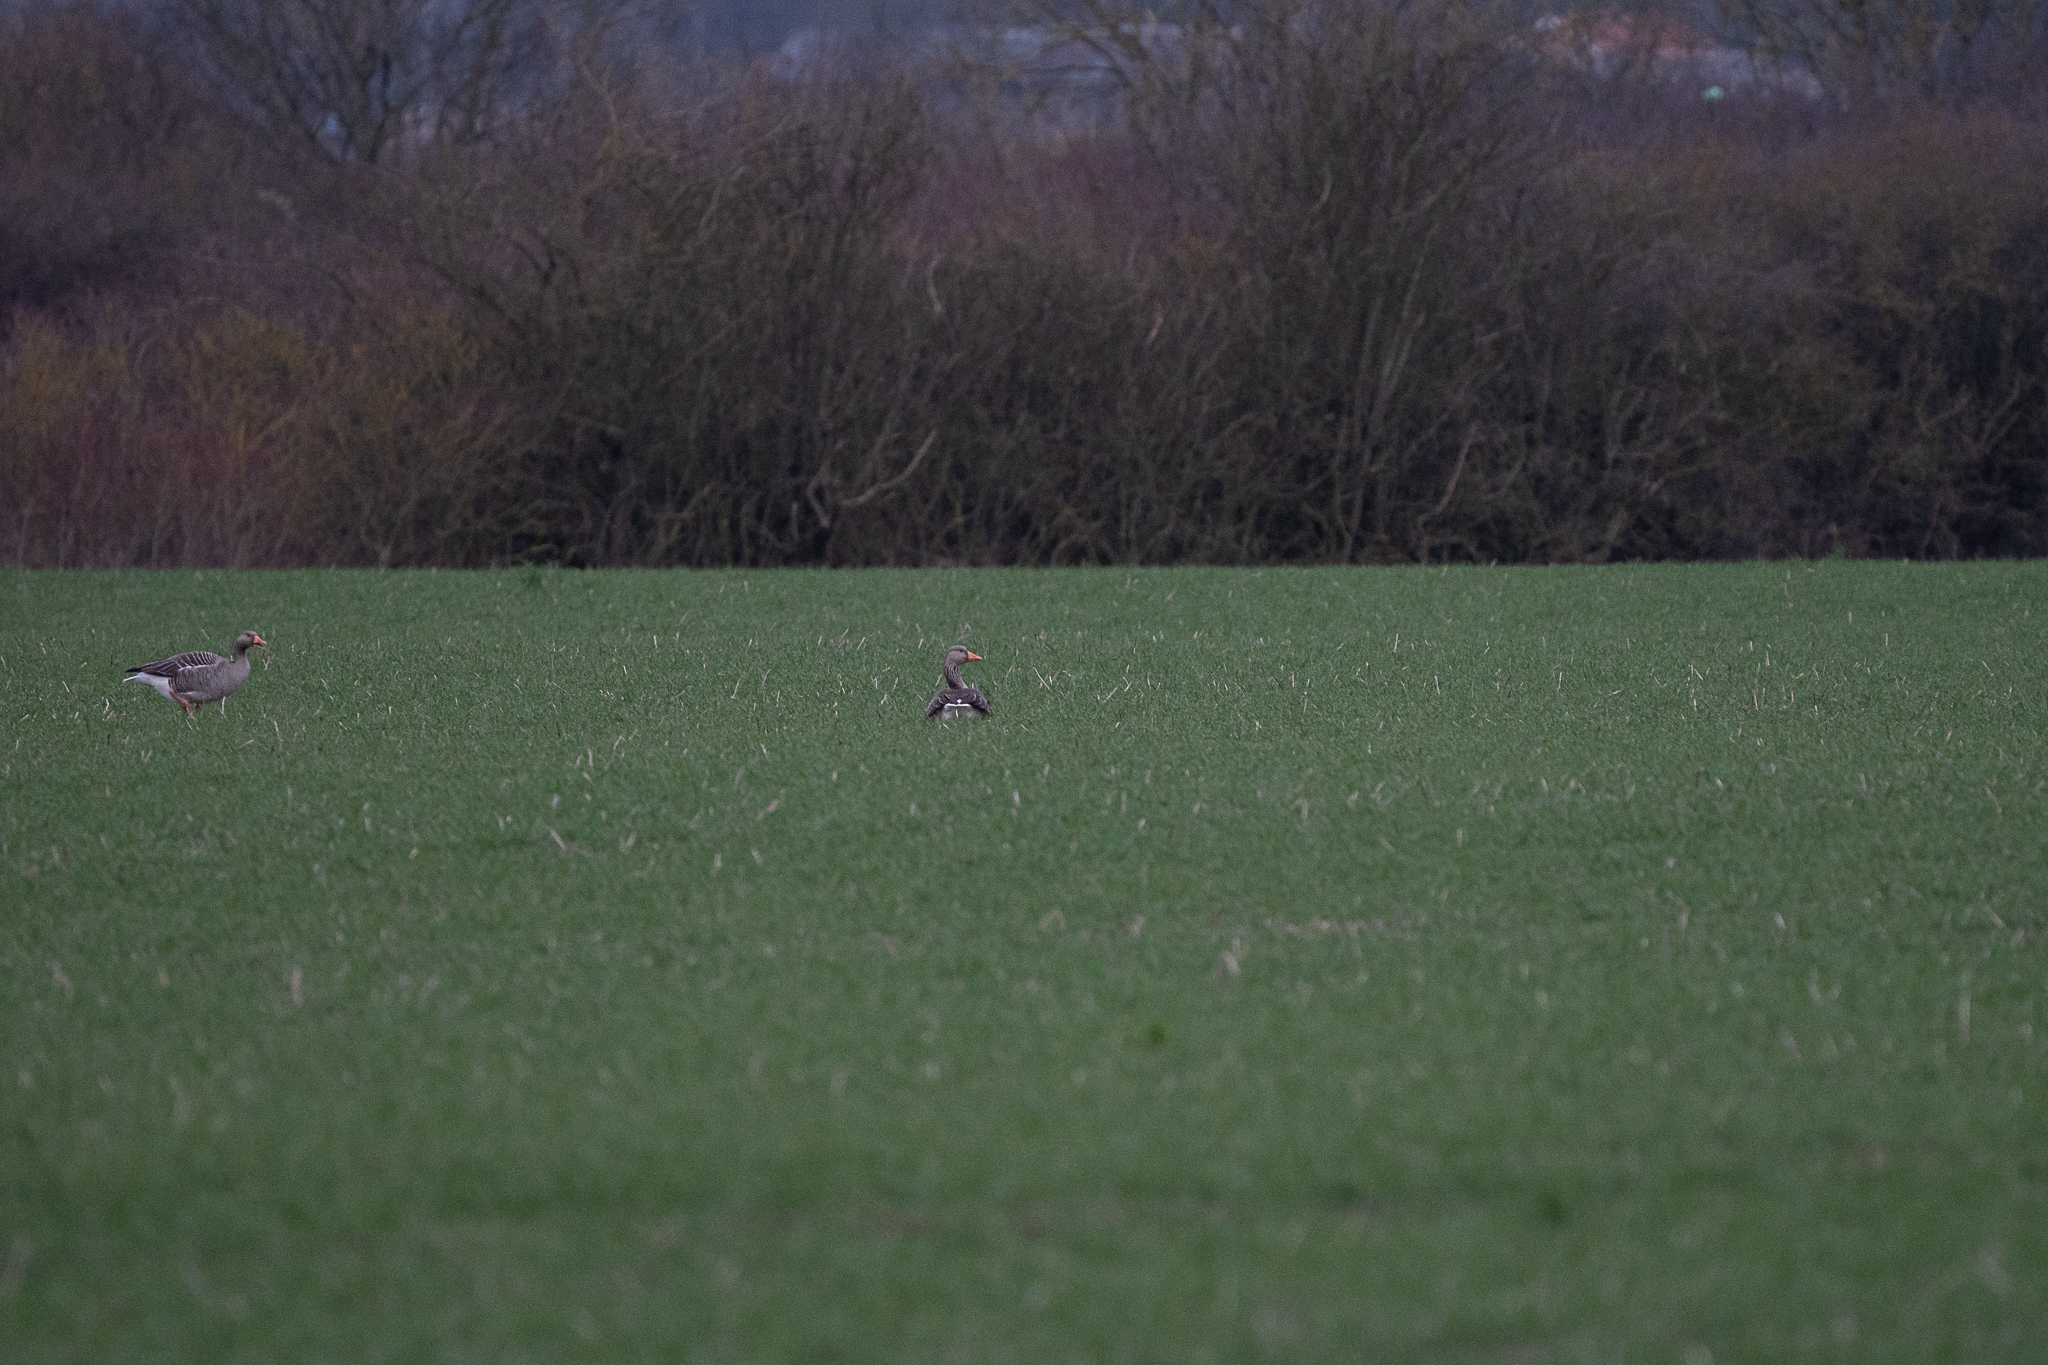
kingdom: Animalia
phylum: Chordata
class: Aves
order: Anseriformes
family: Anatidae
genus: Anser
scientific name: Anser anser
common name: Greylag goose
